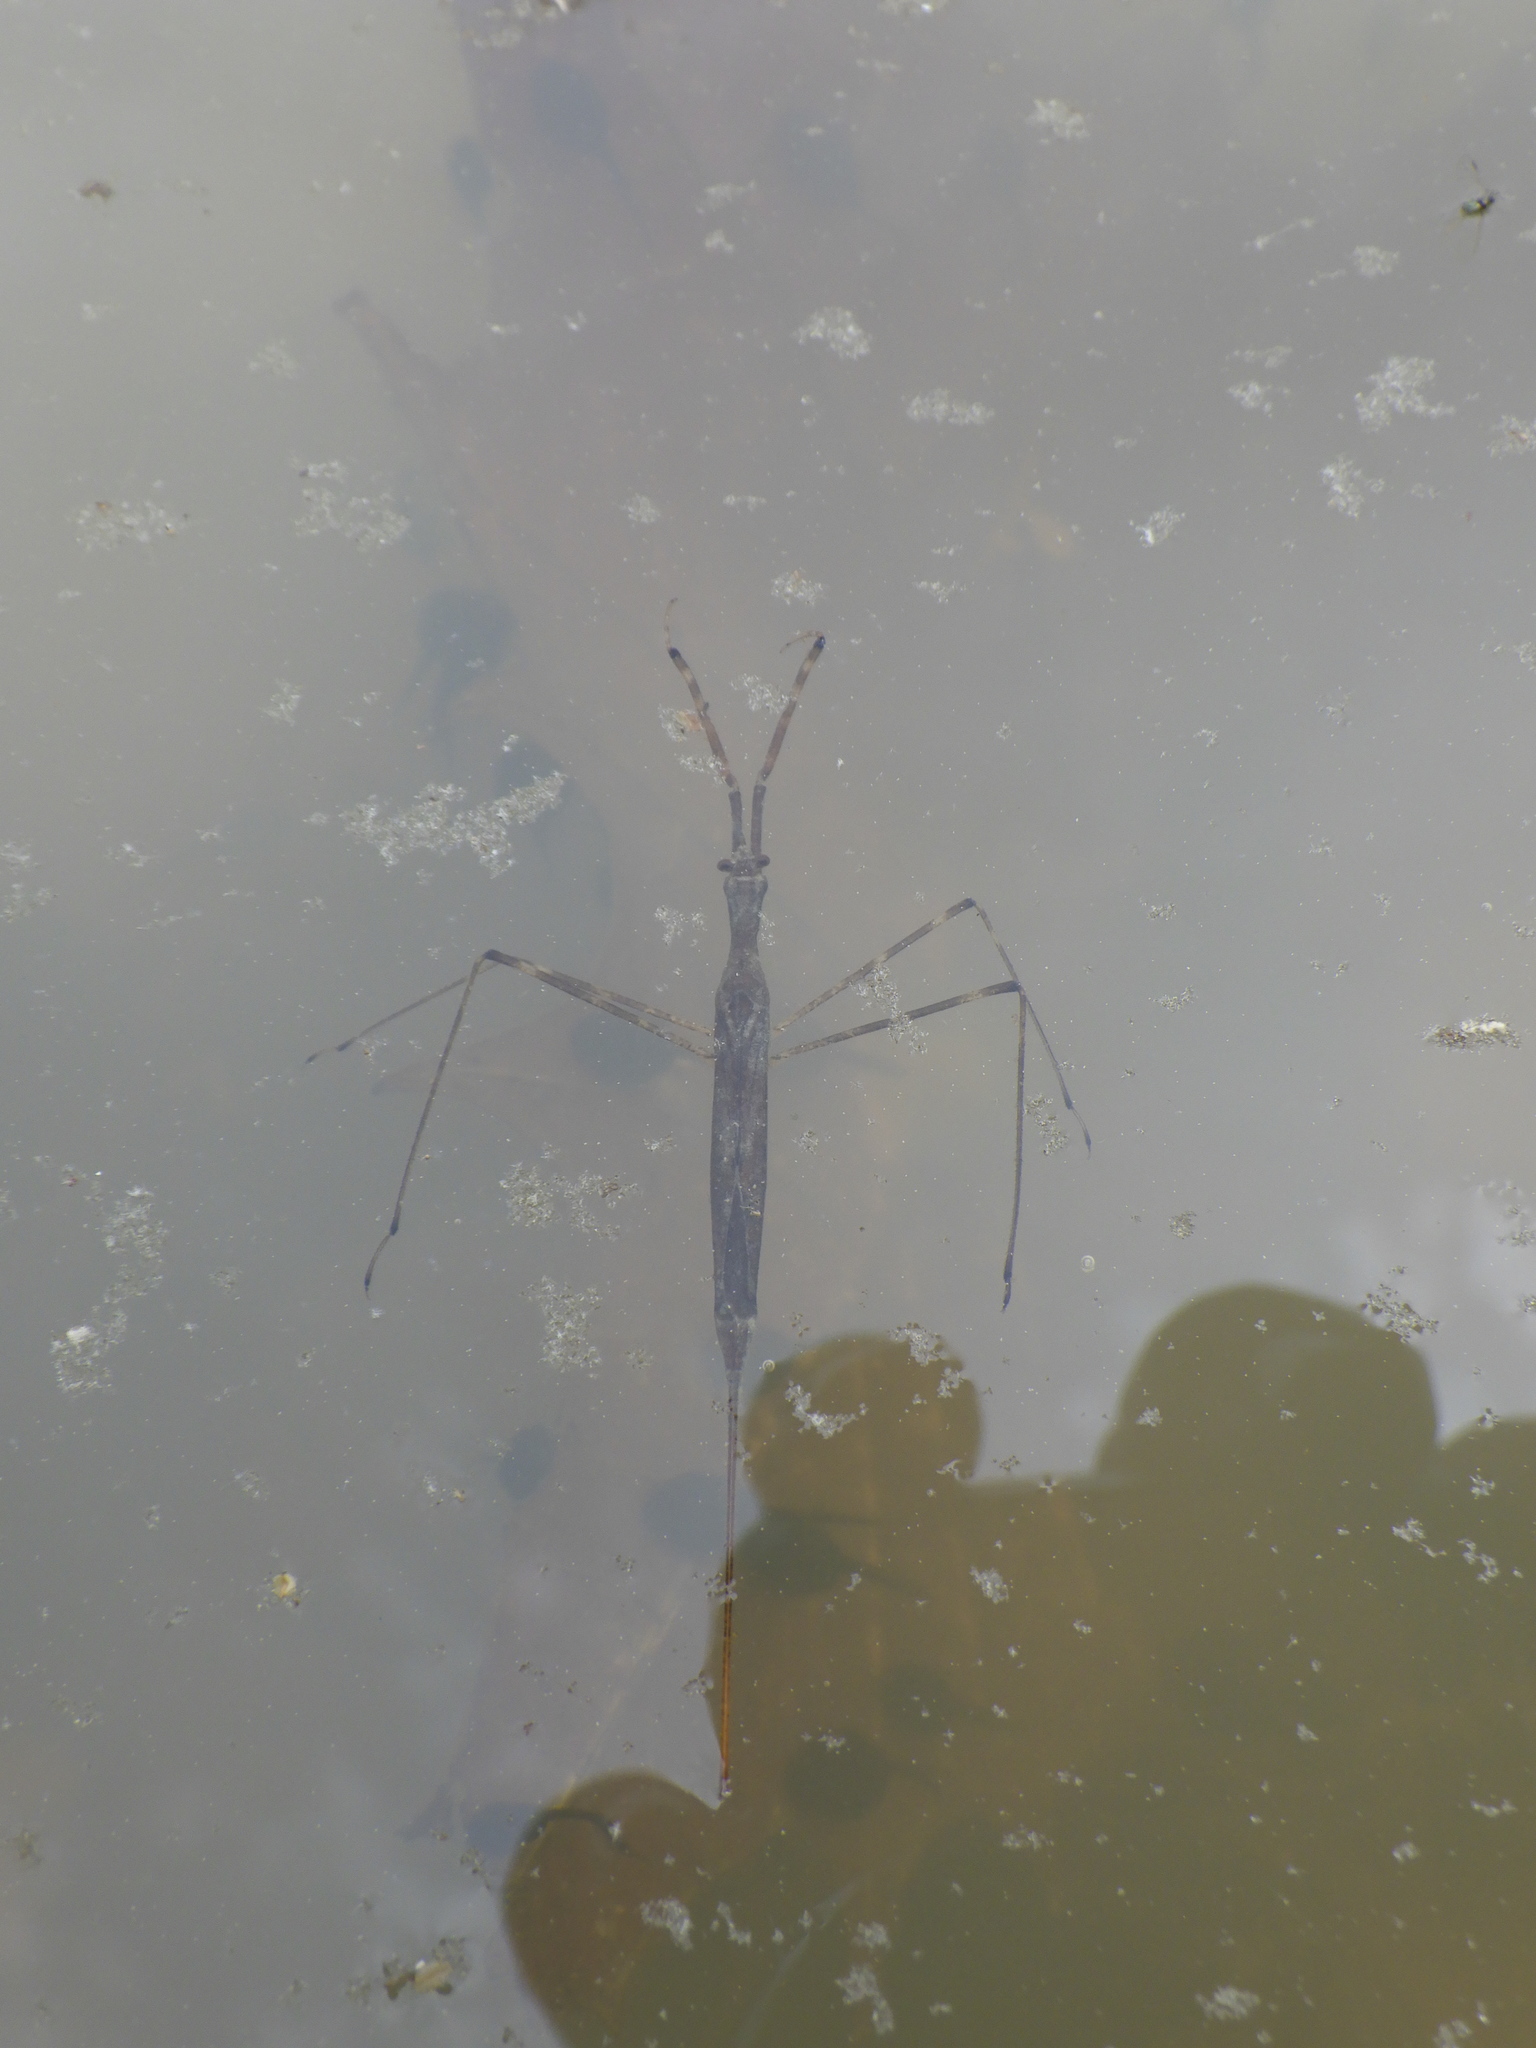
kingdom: Animalia
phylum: Arthropoda
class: Insecta
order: Hemiptera
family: Nepidae
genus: Ranatra
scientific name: Ranatra
